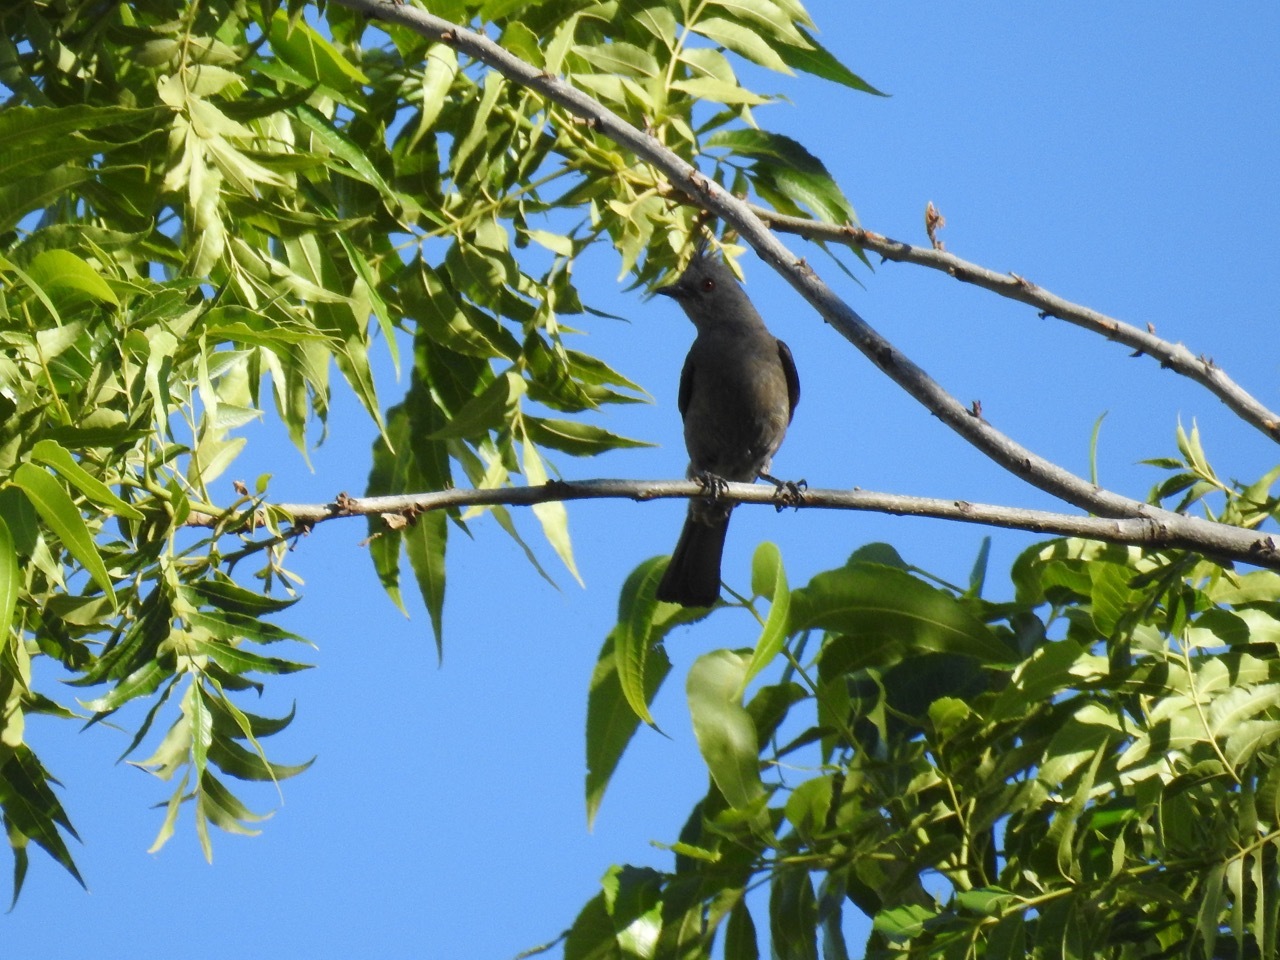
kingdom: Animalia
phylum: Chordata
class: Aves
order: Passeriformes
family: Ptilogonatidae
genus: Phainopepla
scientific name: Phainopepla nitens
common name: Phainopepla
